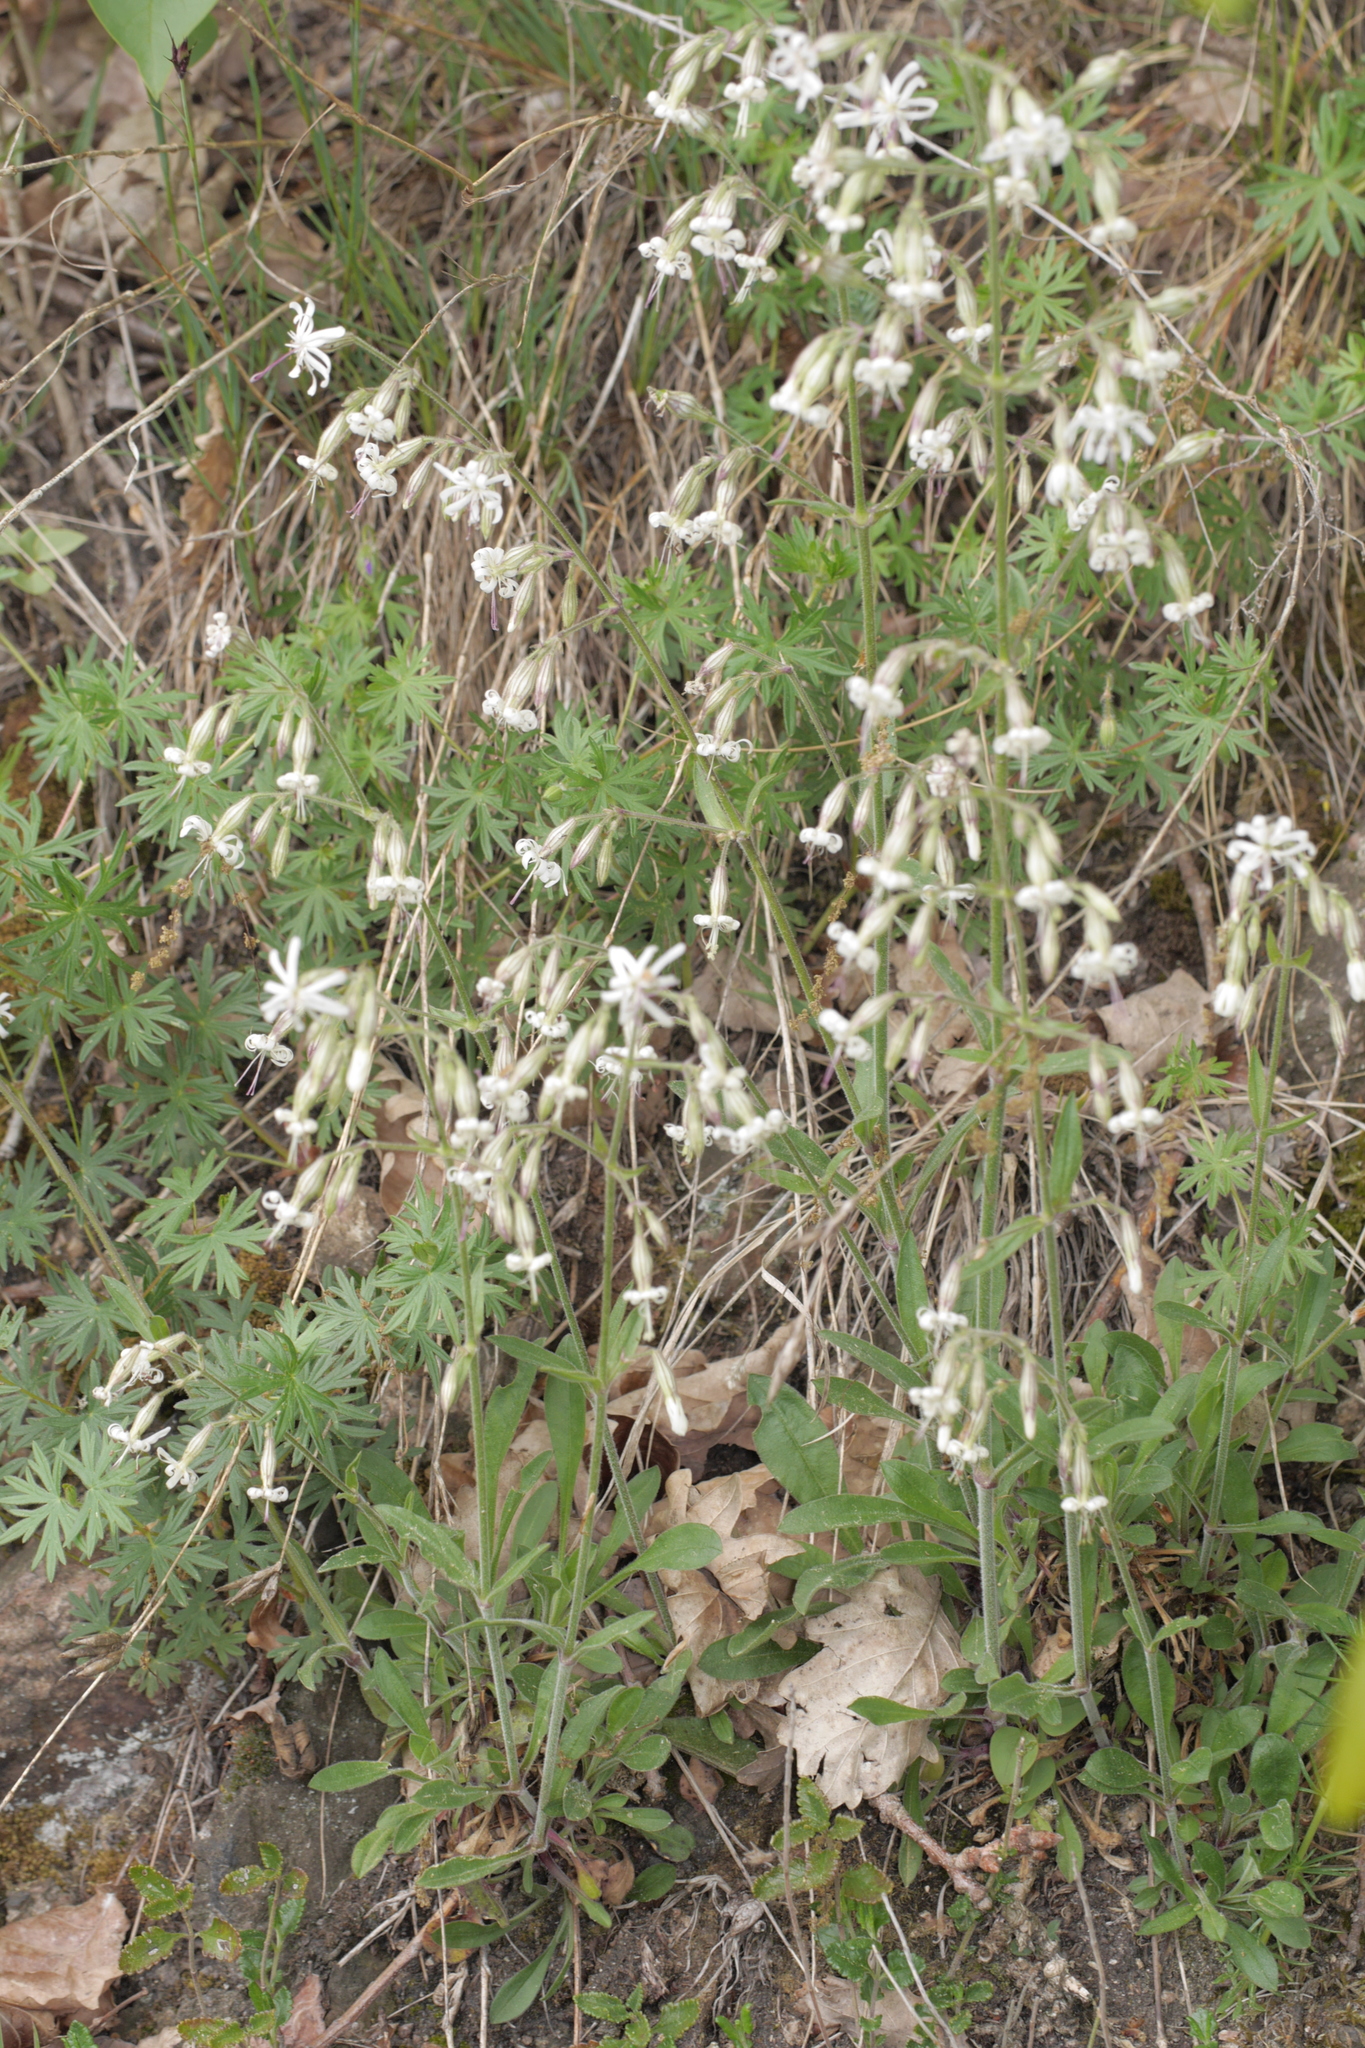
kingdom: Plantae
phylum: Tracheophyta
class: Magnoliopsida
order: Caryophyllales
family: Caryophyllaceae
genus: Silene
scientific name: Silene nutans
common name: Nottingham catchfly
